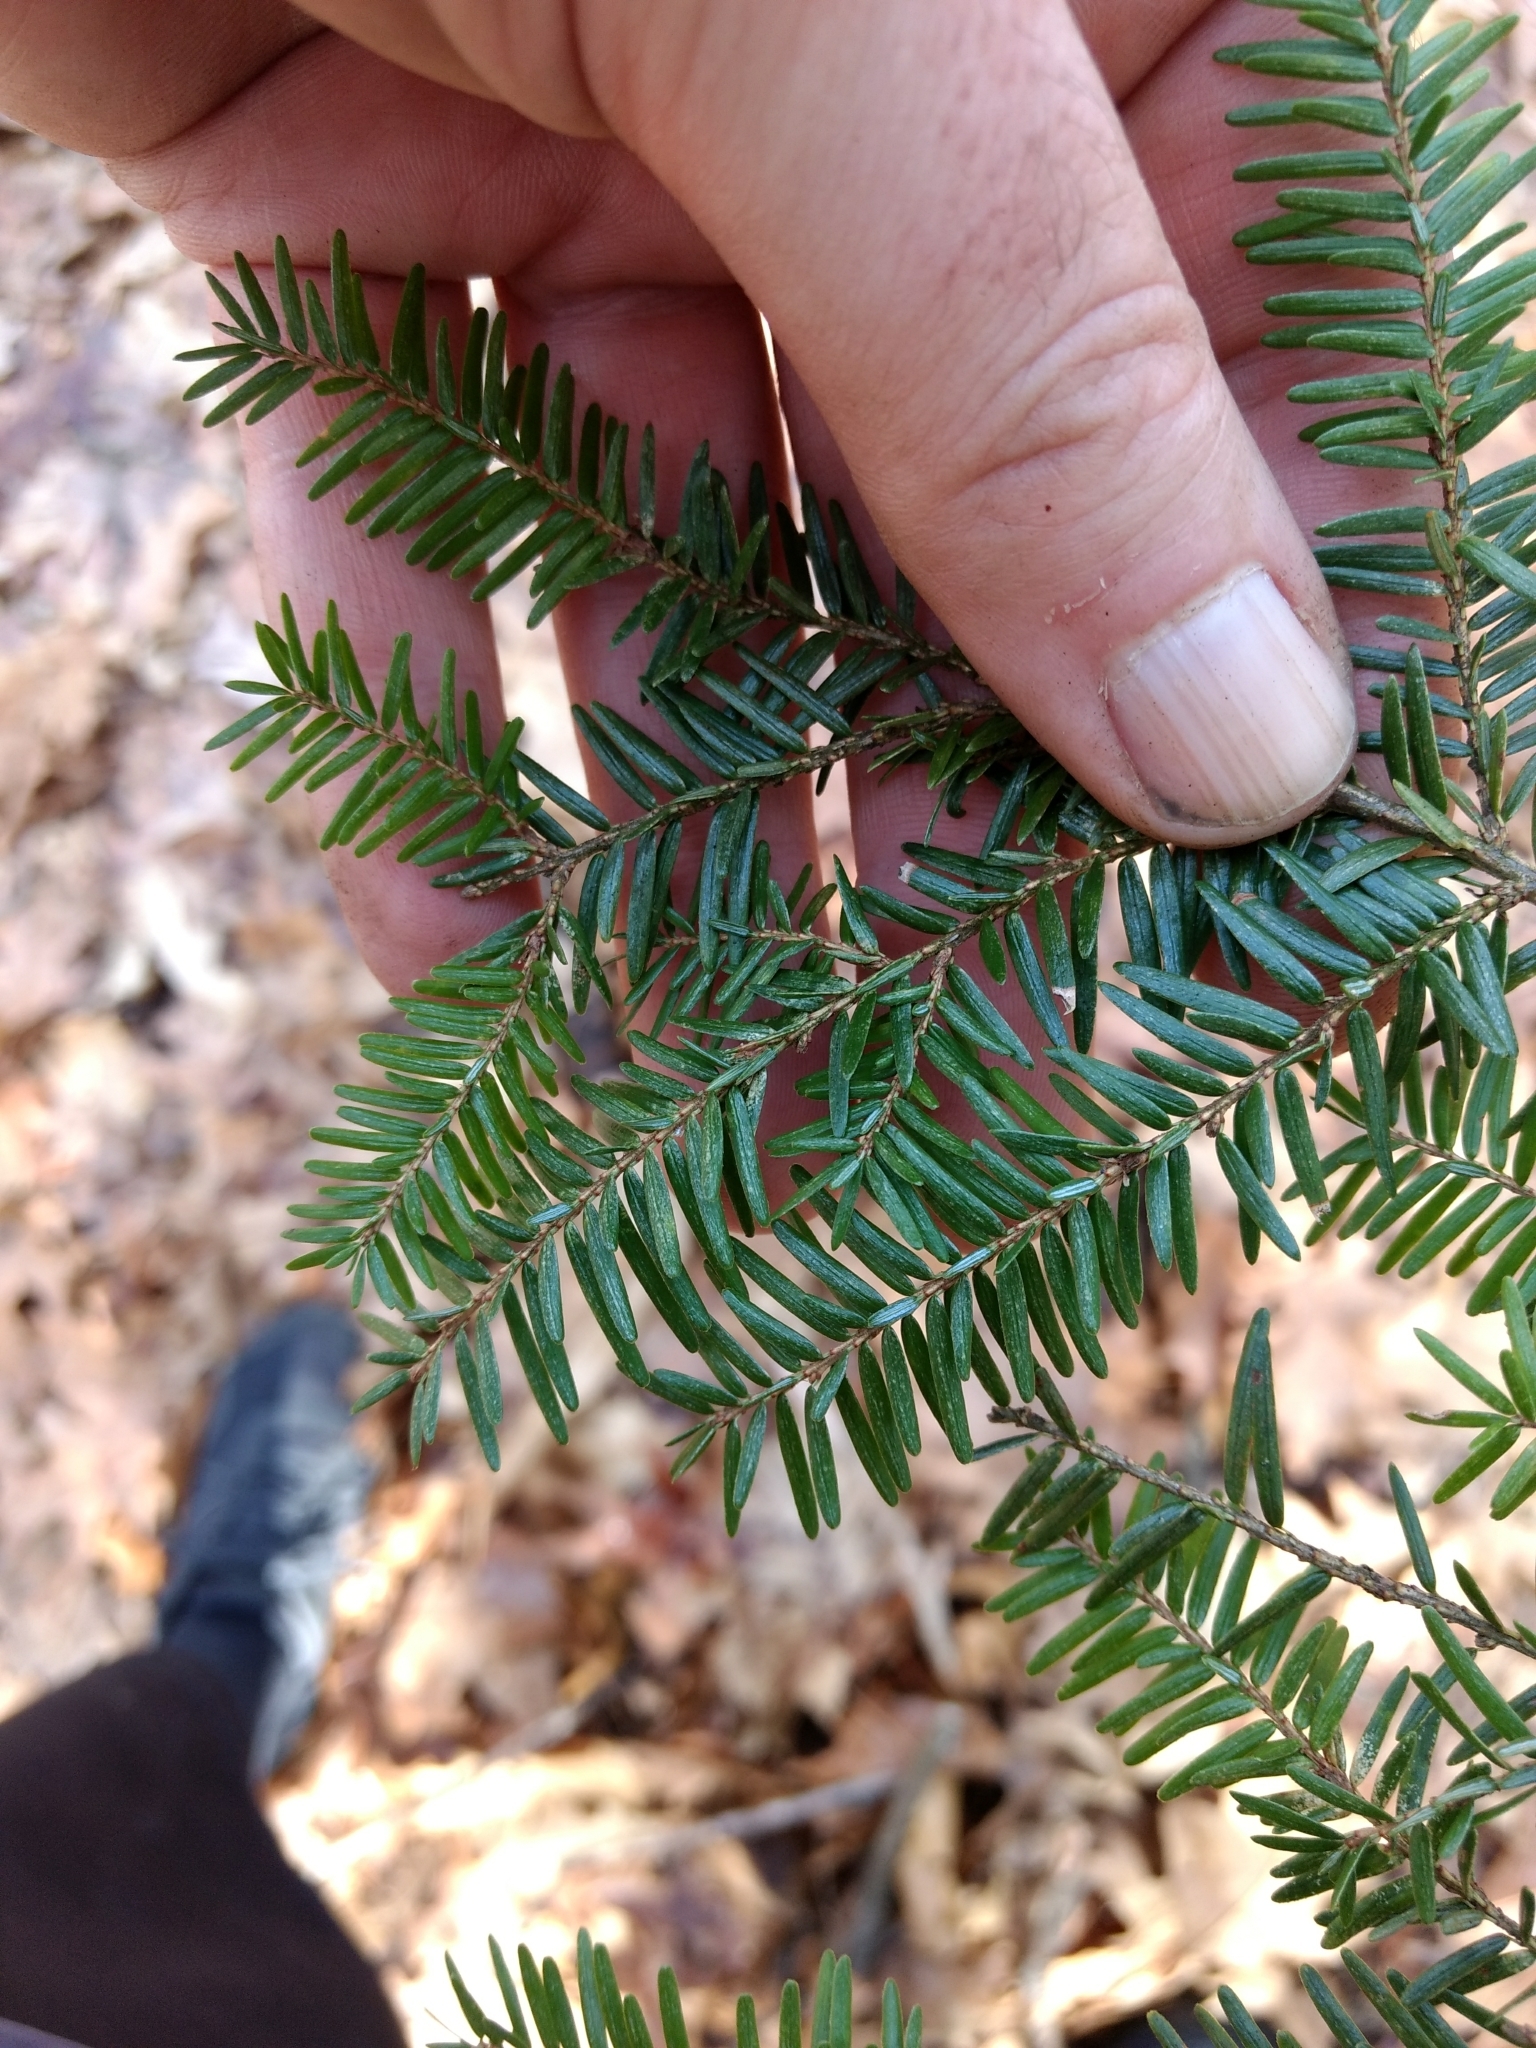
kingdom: Plantae
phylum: Tracheophyta
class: Pinopsida
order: Pinales
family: Pinaceae
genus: Tsuga
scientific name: Tsuga canadensis
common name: Eastern hemlock
